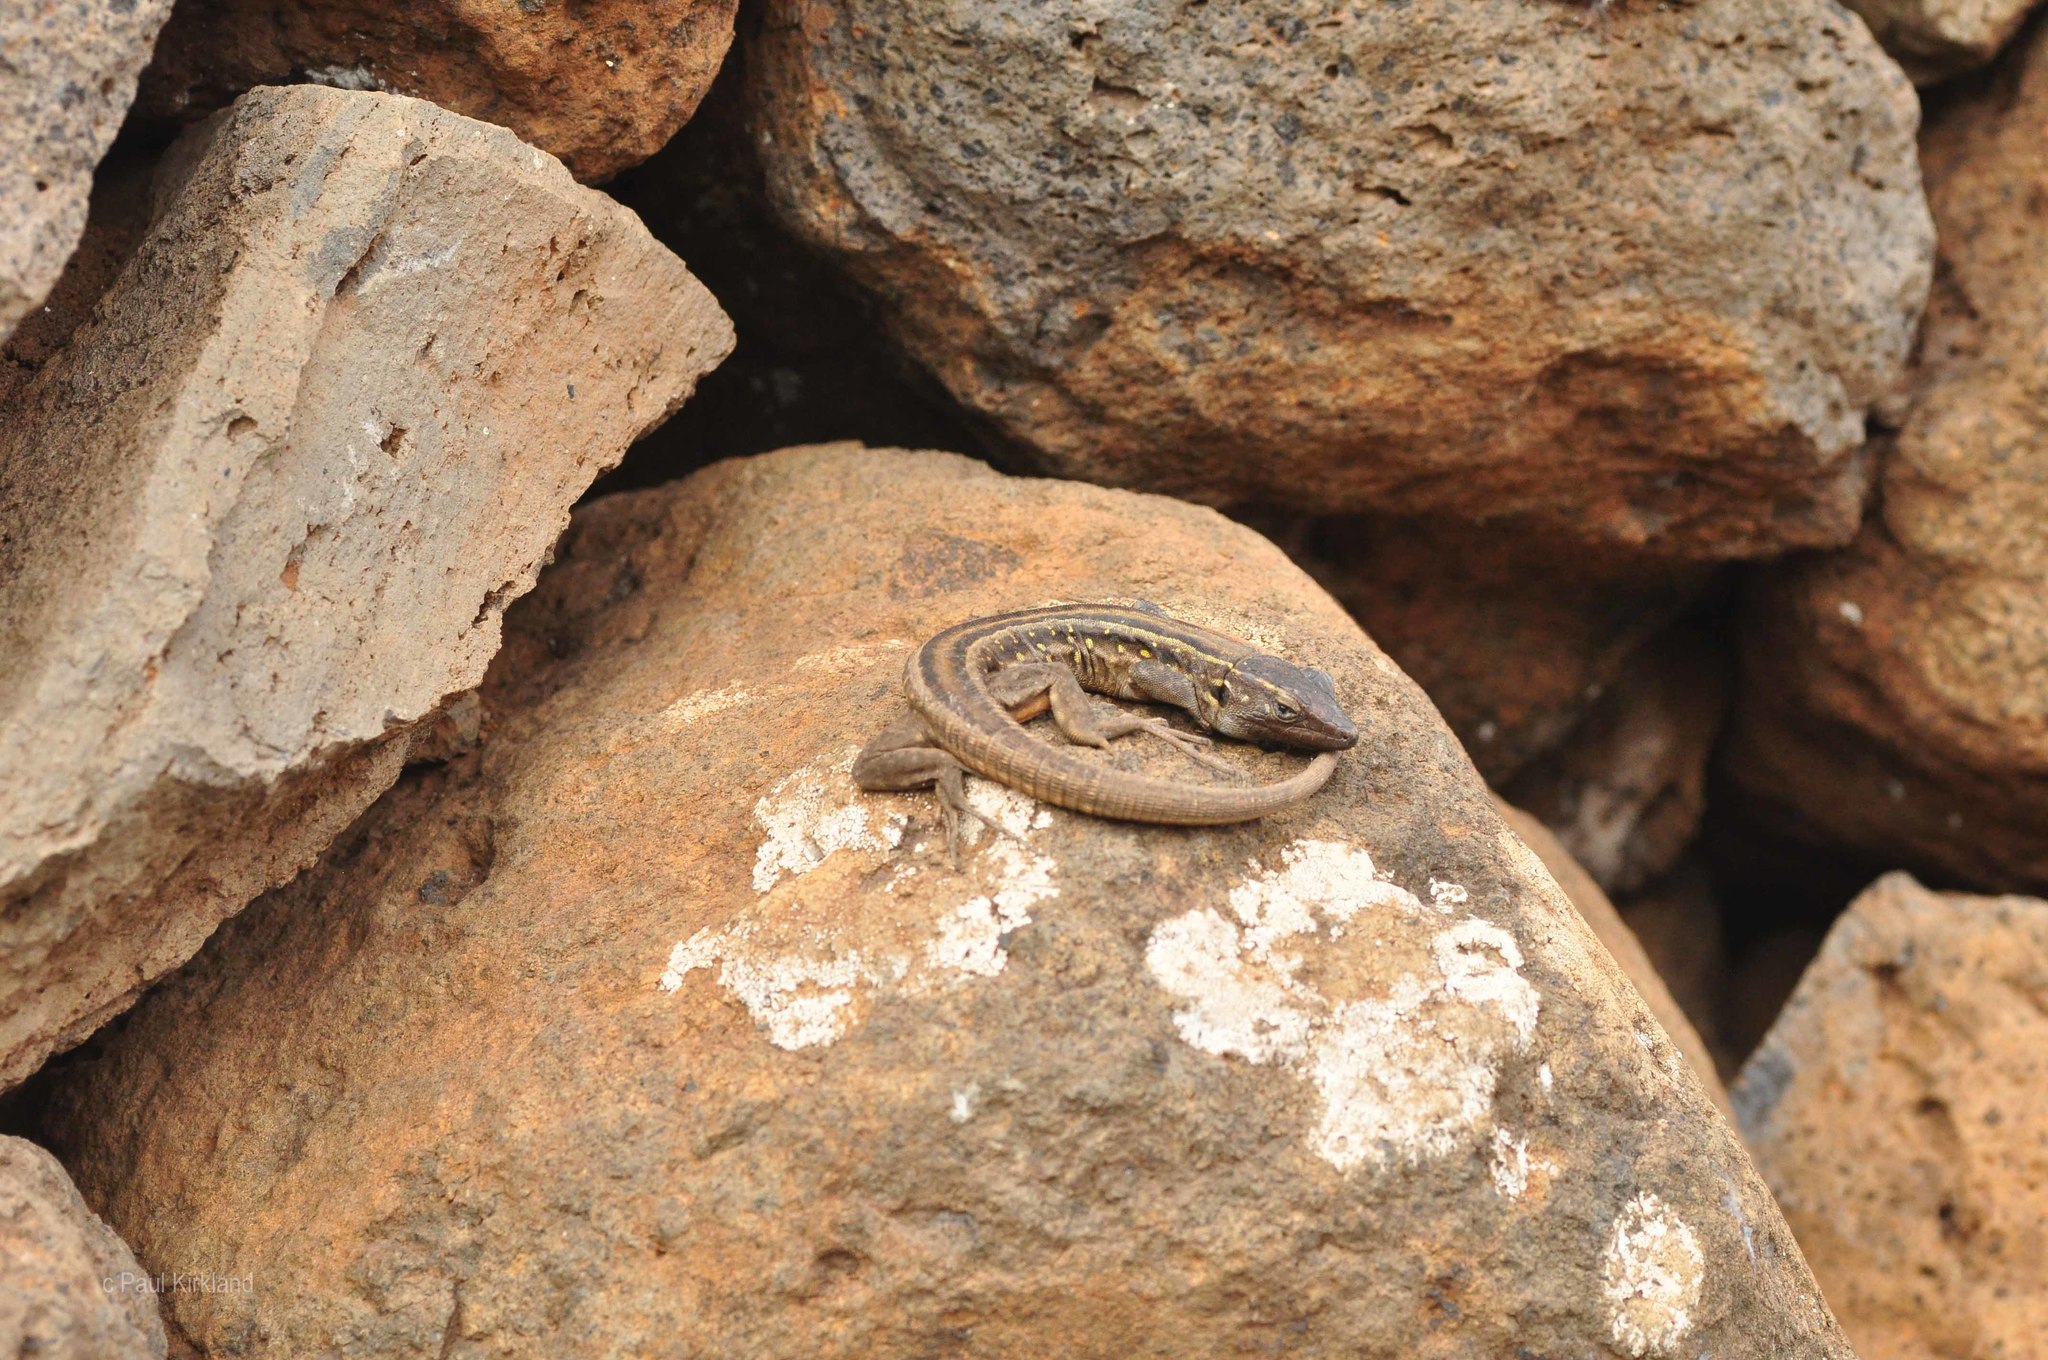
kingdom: Animalia
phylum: Chordata
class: Squamata
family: Lacertidae
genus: Gallotia
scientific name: Gallotia galloti
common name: Gallot's lizard
